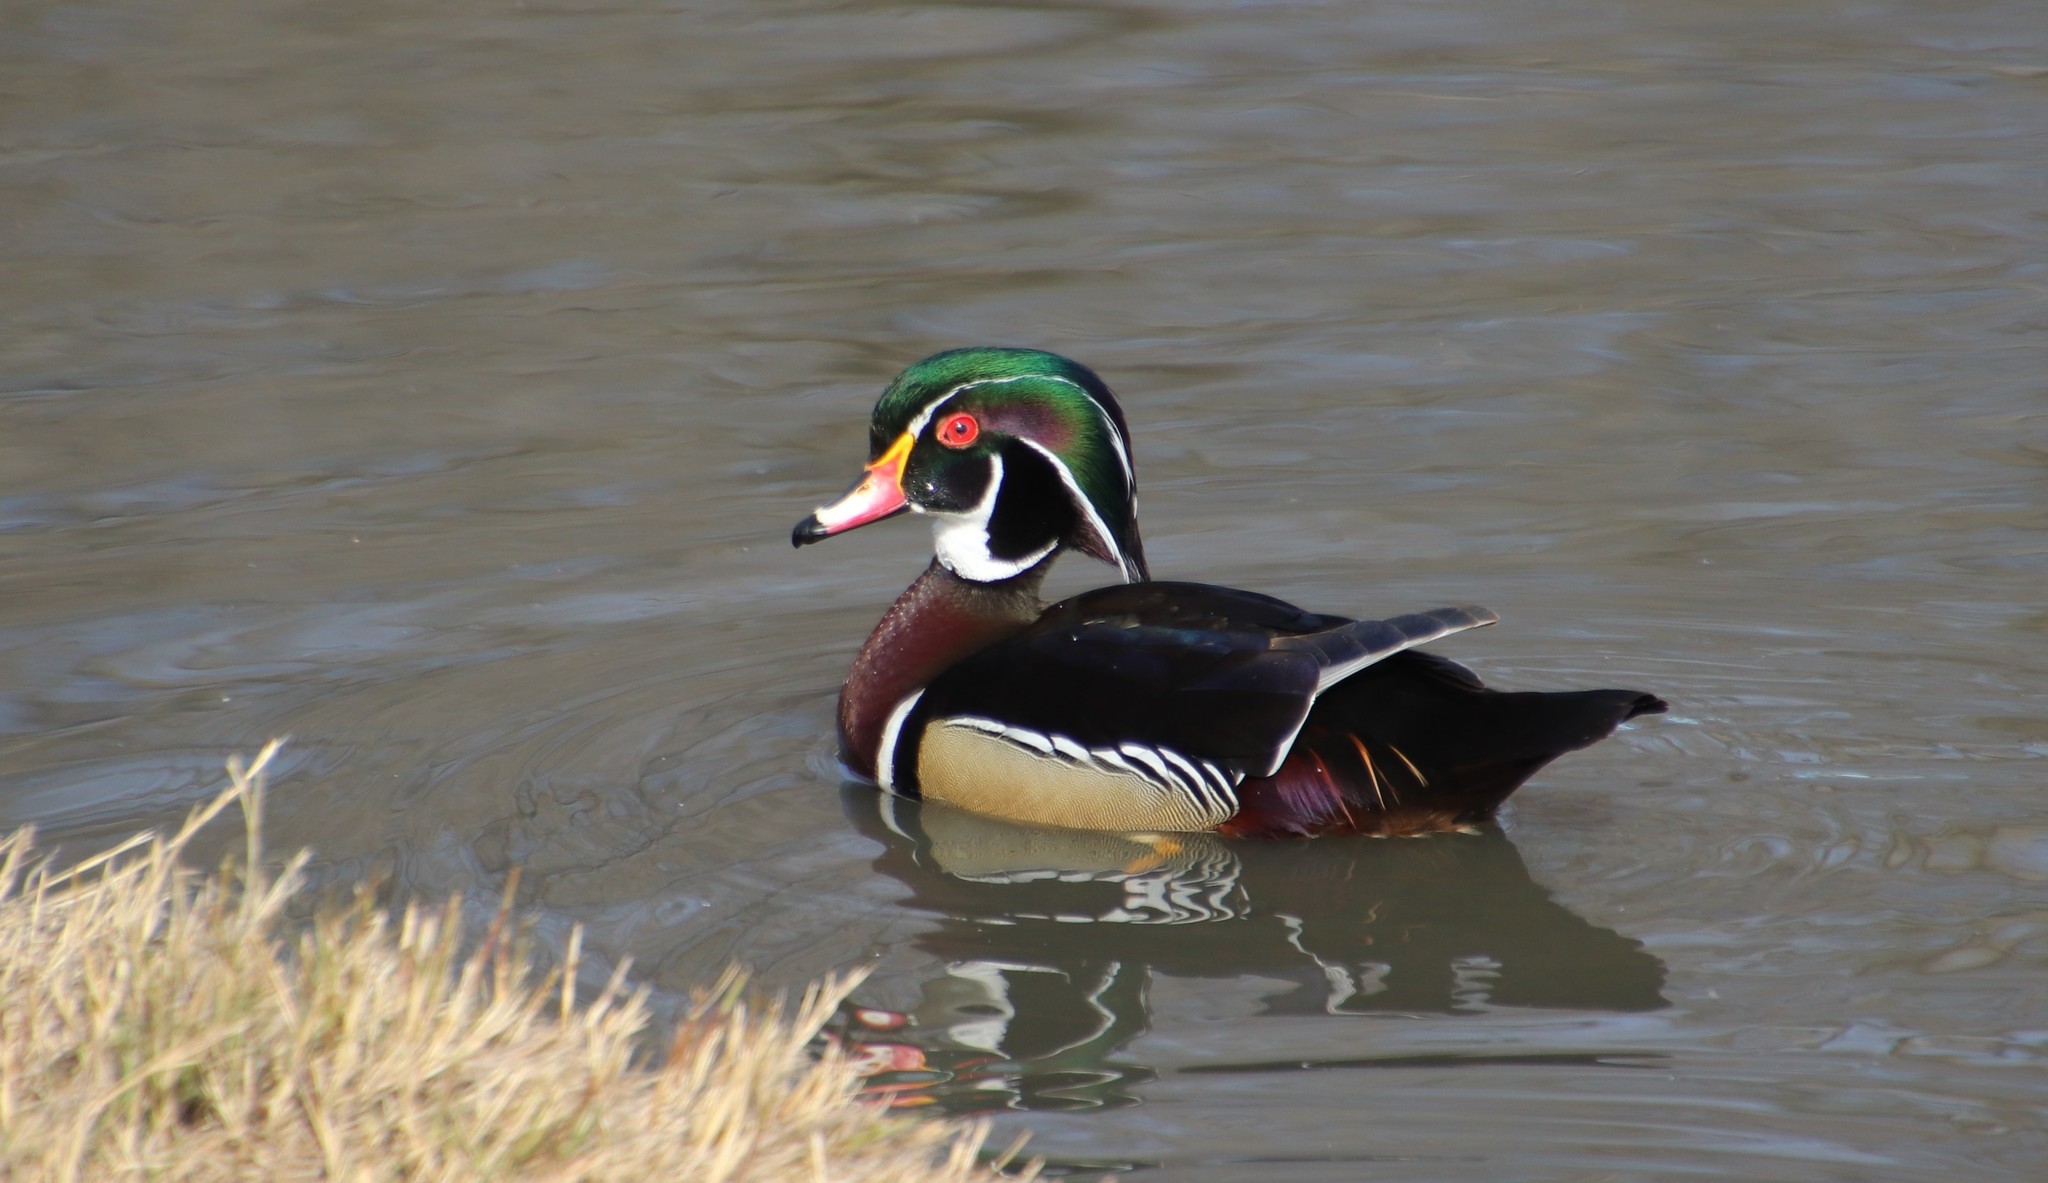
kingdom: Animalia
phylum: Chordata
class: Aves
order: Anseriformes
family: Anatidae
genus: Aix
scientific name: Aix sponsa
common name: Wood duck
